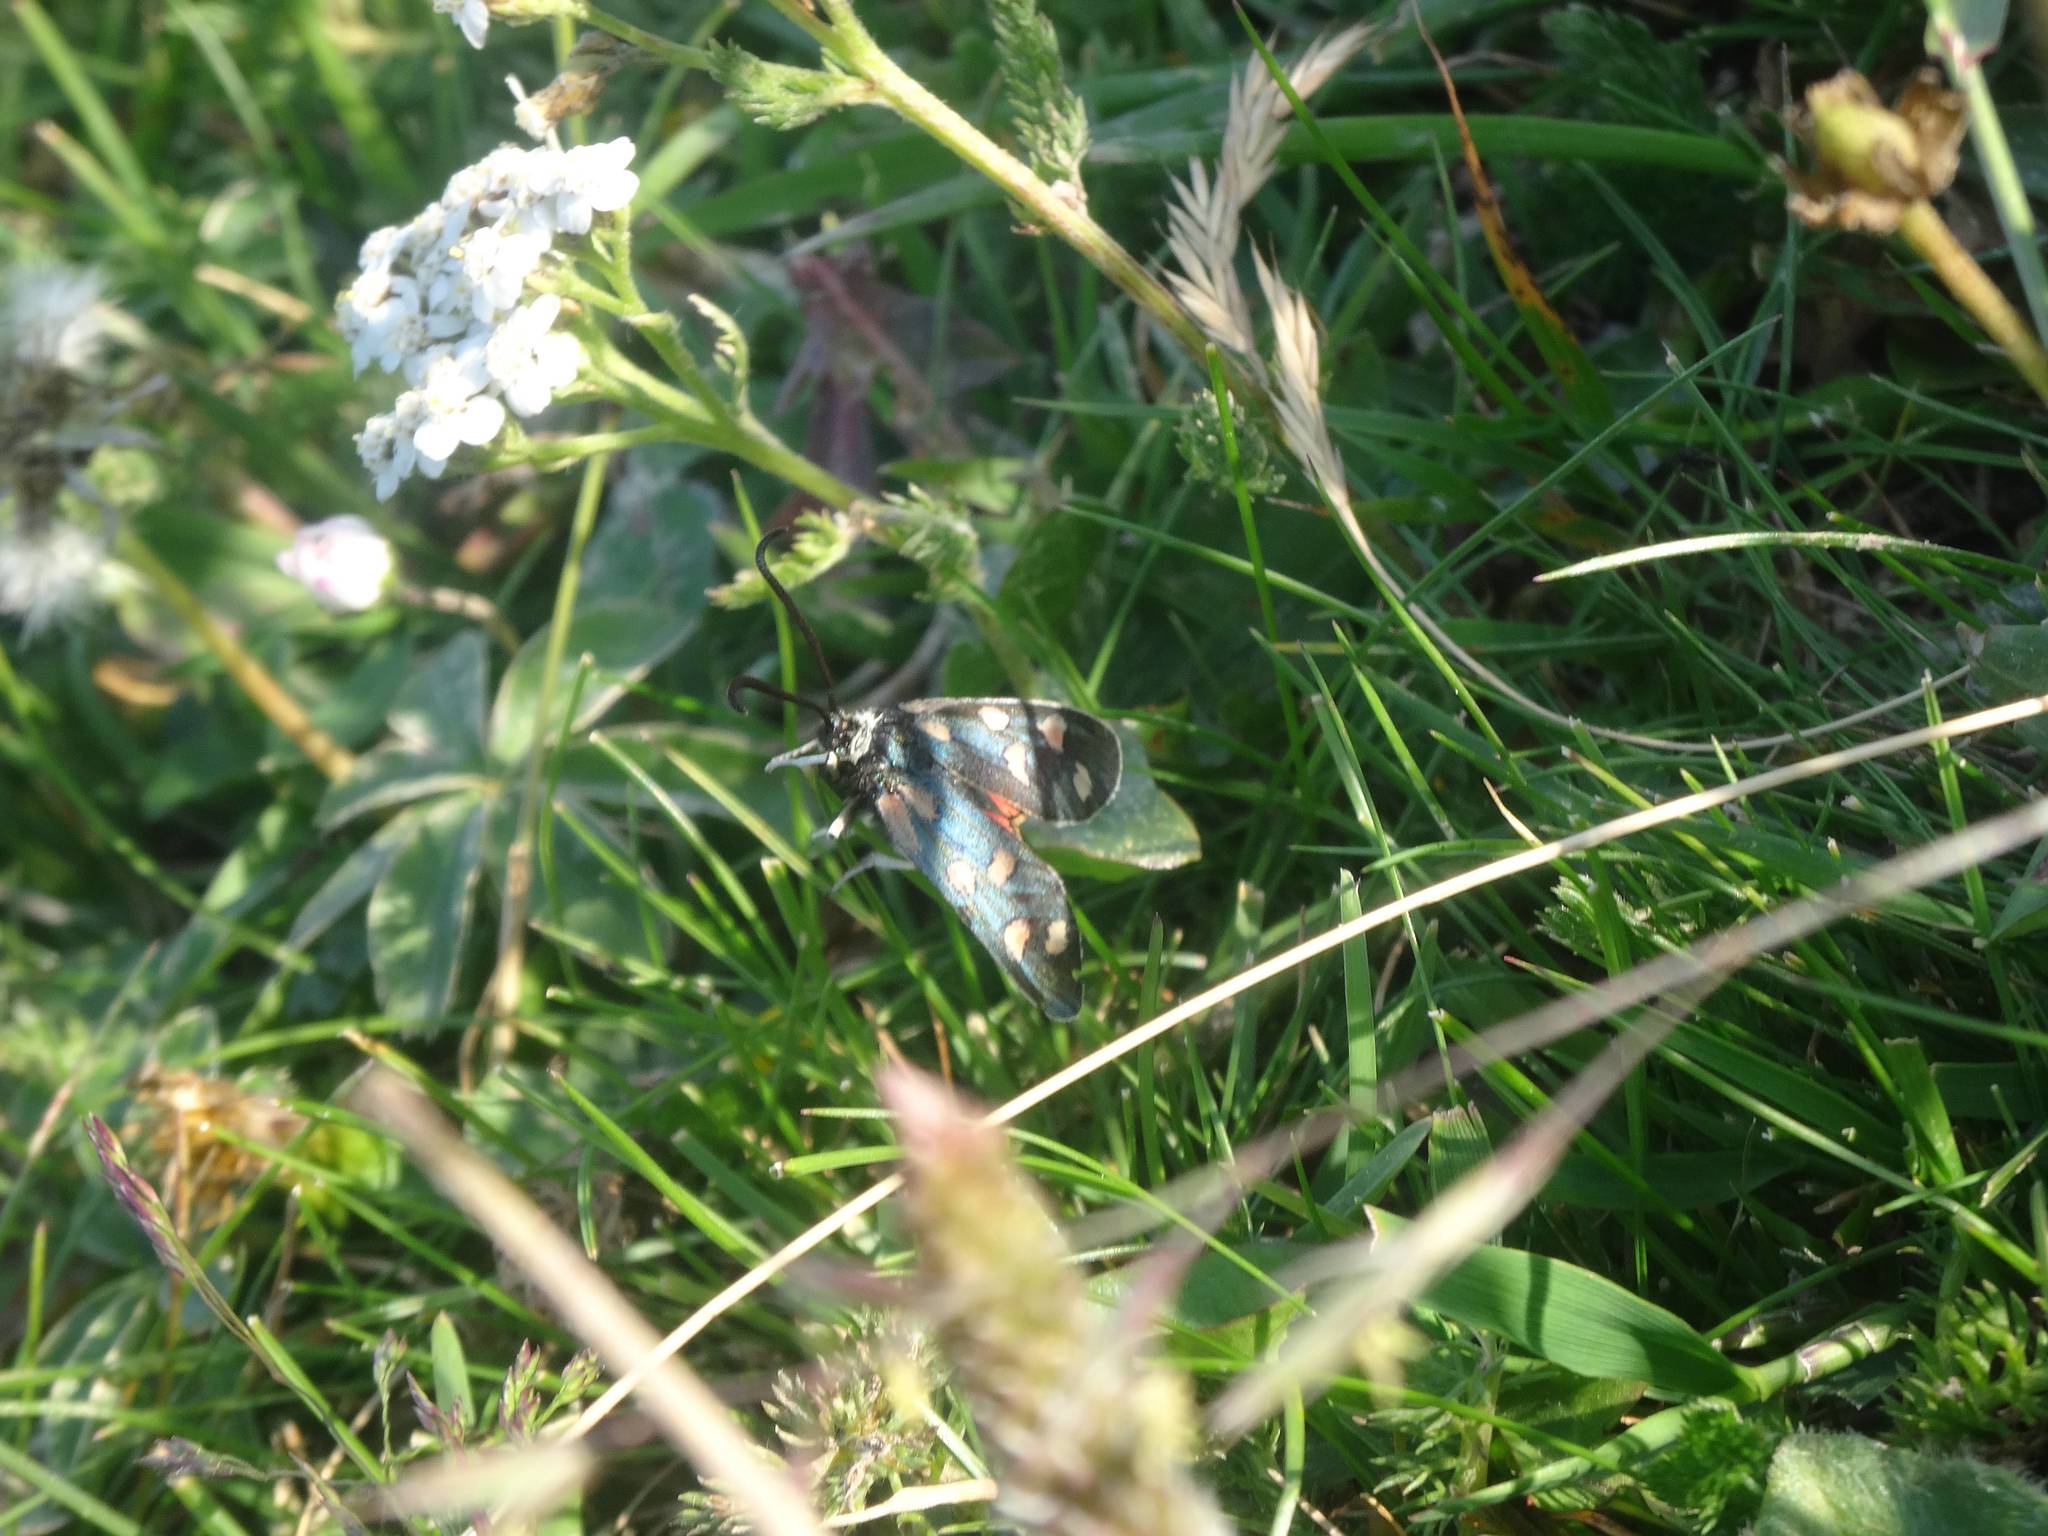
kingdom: Animalia
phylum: Arthropoda
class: Insecta
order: Lepidoptera
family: Zygaenidae
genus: Zygaena
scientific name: Zygaena anthyllidis
